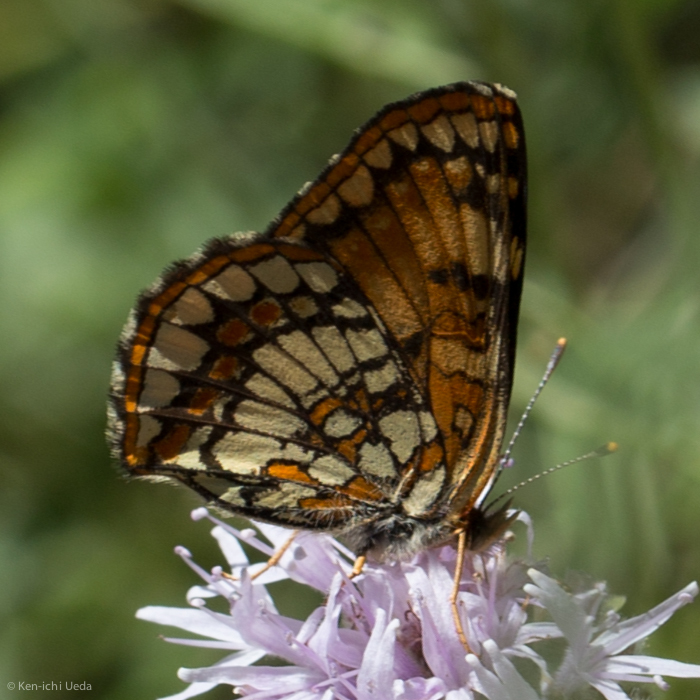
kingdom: Animalia
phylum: Arthropoda
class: Insecta
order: Lepidoptera
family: Nymphalidae
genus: Chlosyne
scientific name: Chlosyne hoffmanni
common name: Hoffmann's checkerspot
